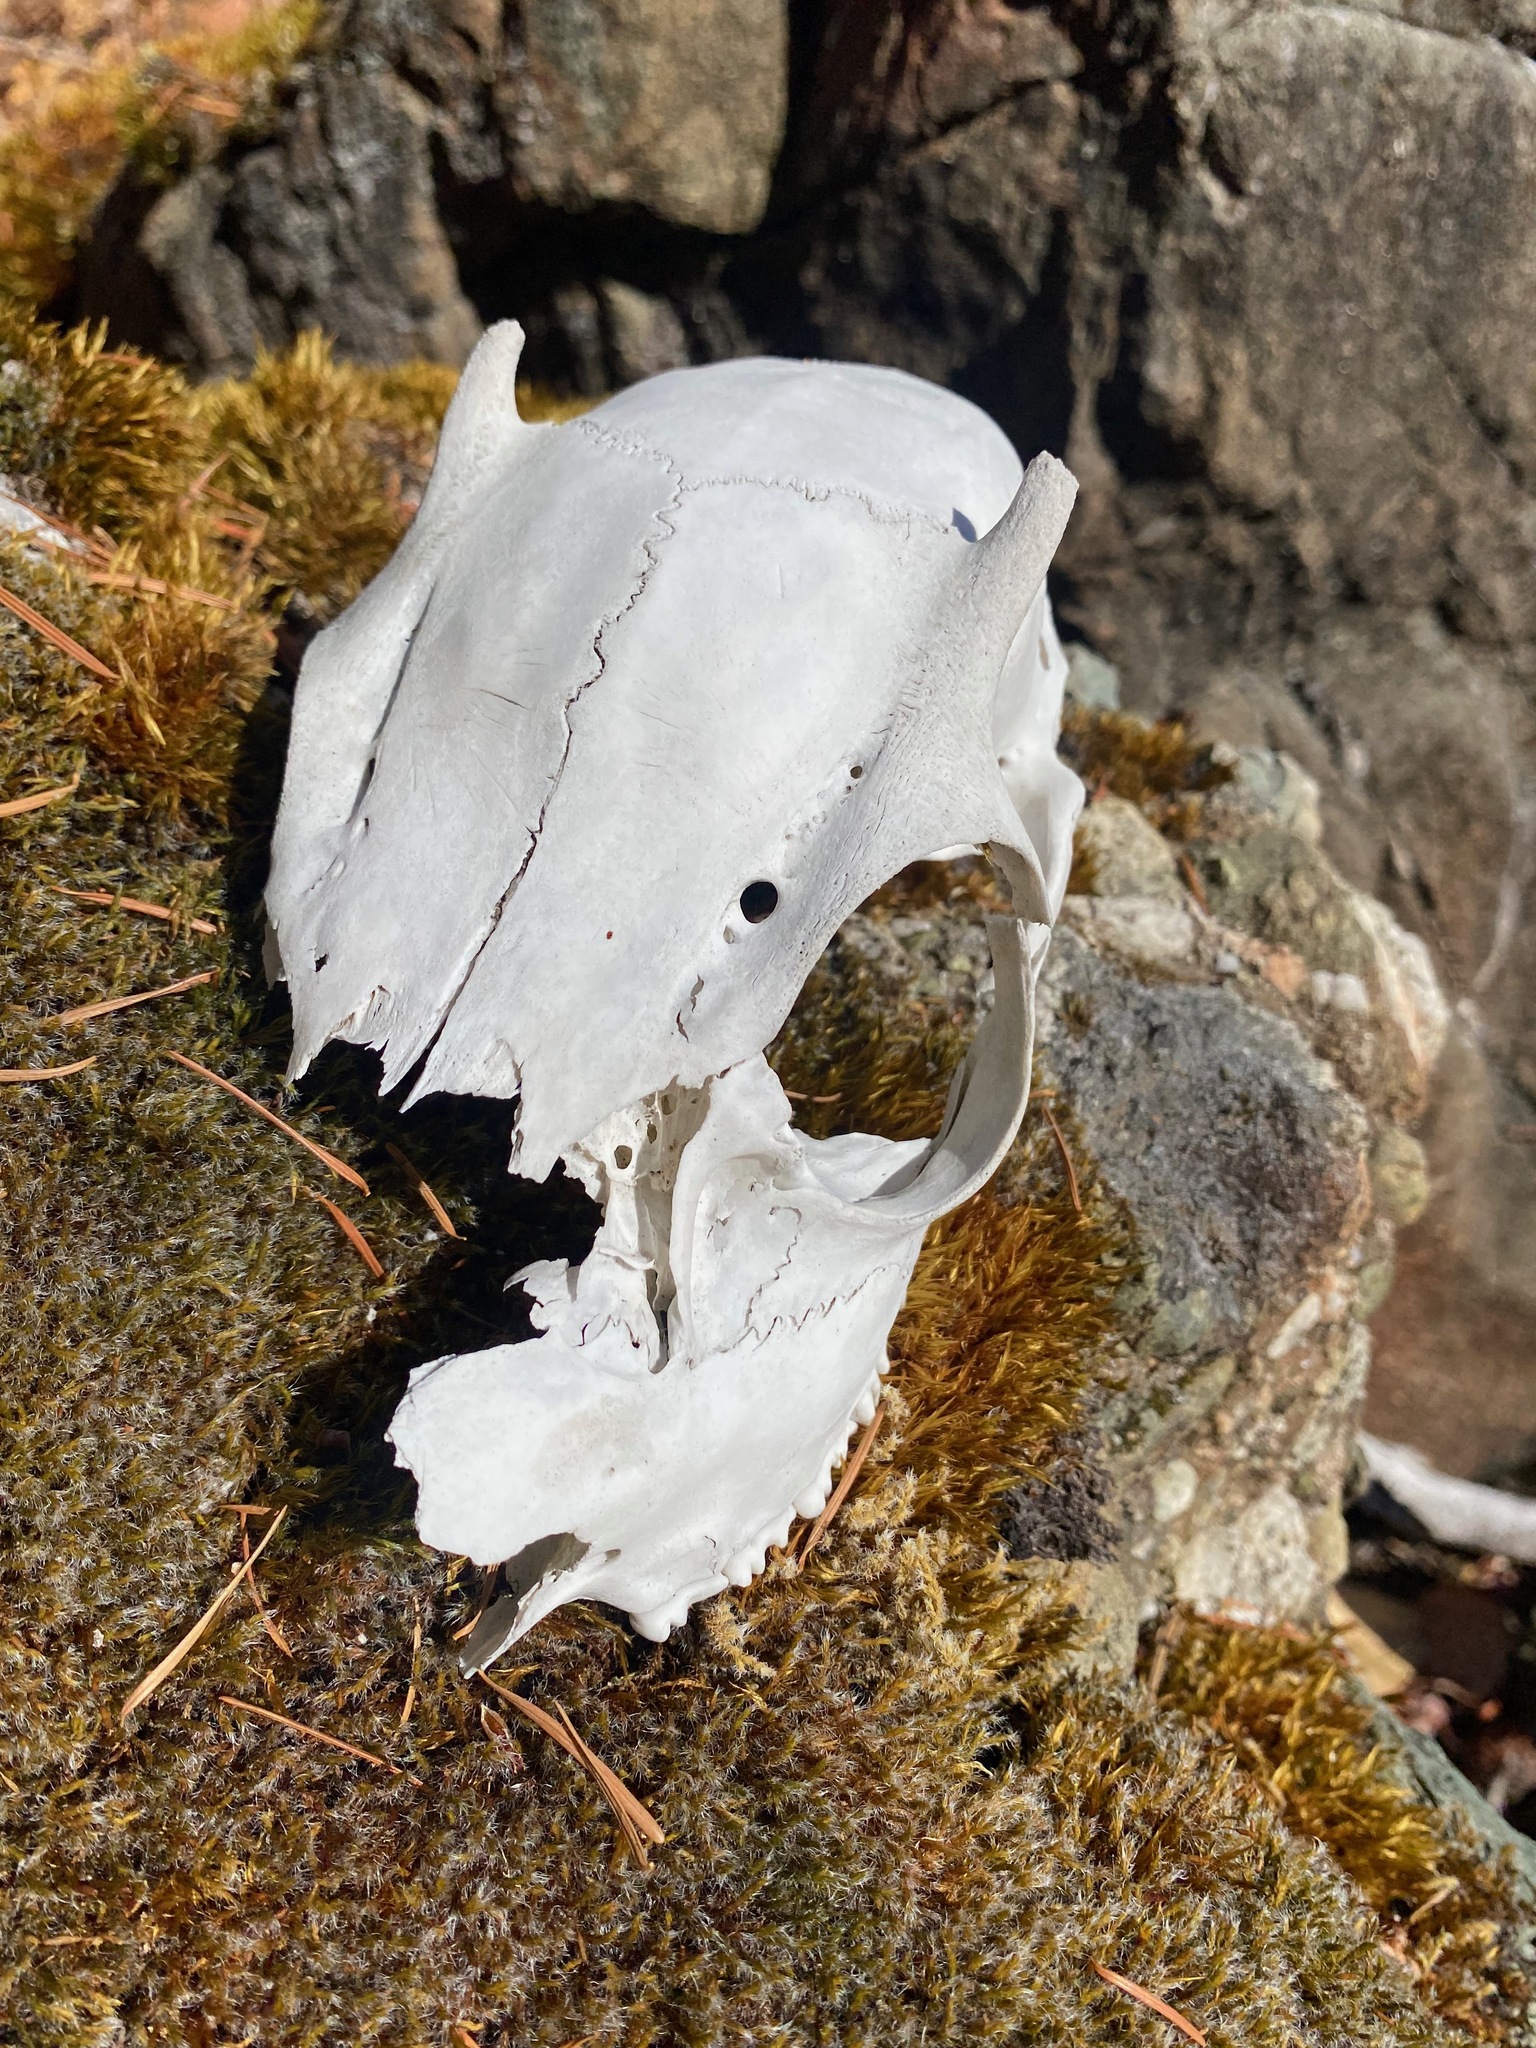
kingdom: Animalia
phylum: Chordata
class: Mammalia
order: Artiodactyla
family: Cervidae
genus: Odocoileus
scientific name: Odocoileus hemionus
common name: Mule deer
